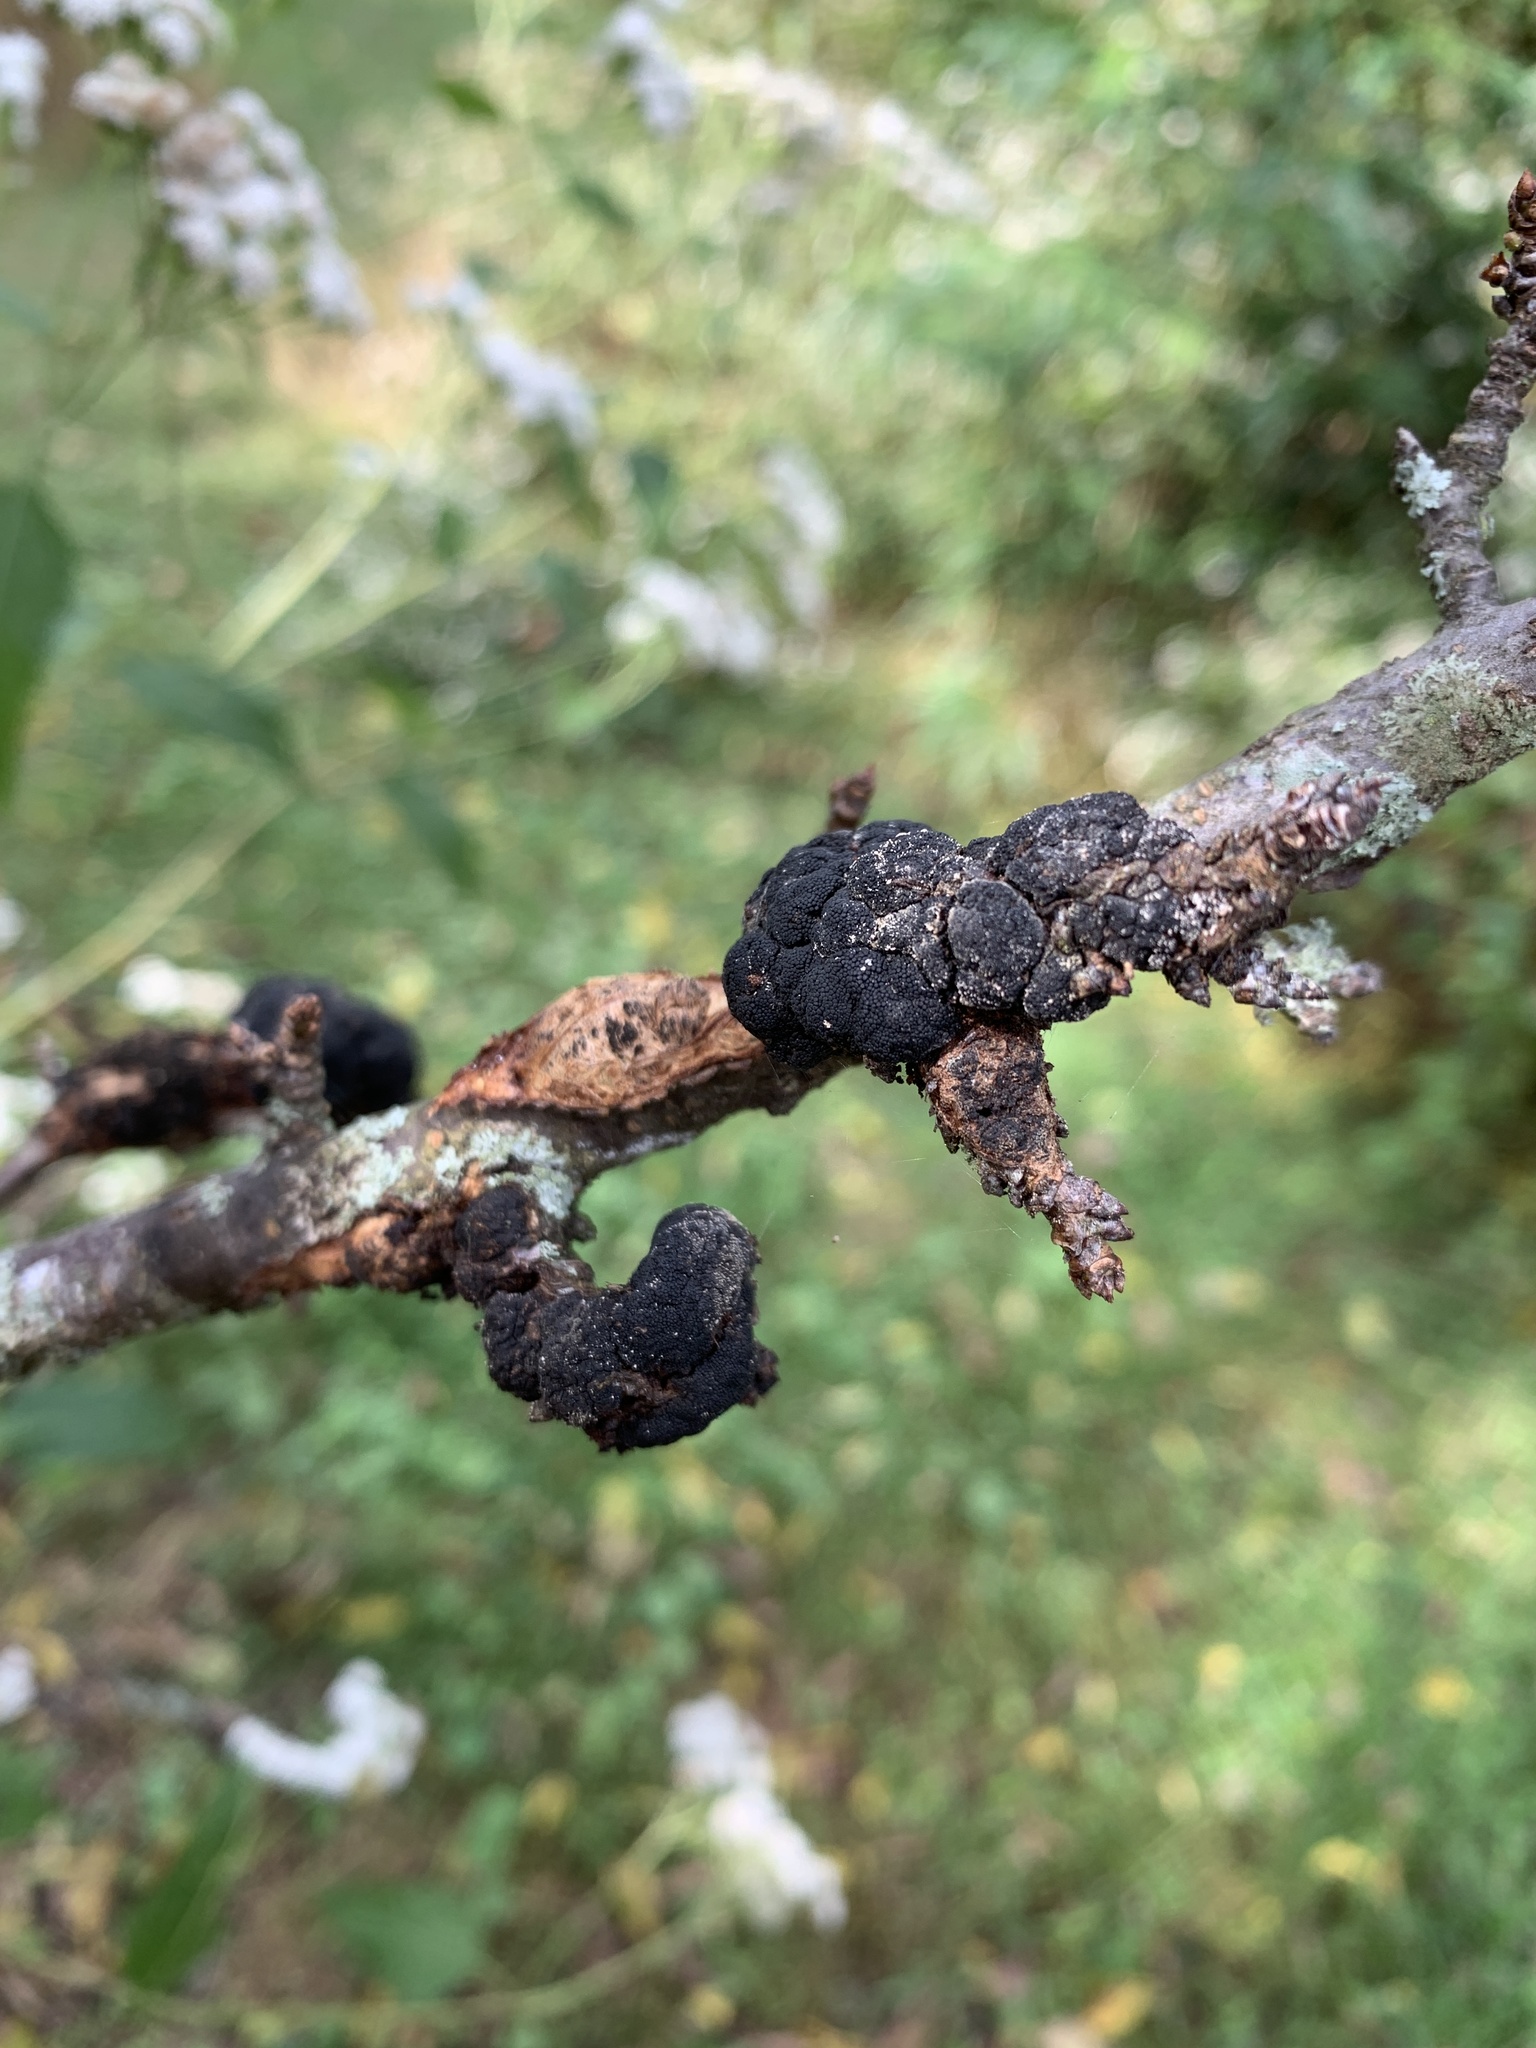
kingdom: Fungi
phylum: Ascomycota
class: Dothideomycetes
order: Venturiales
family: Venturiaceae
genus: Apiosporina
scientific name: Apiosporina morbosa
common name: Black knot
